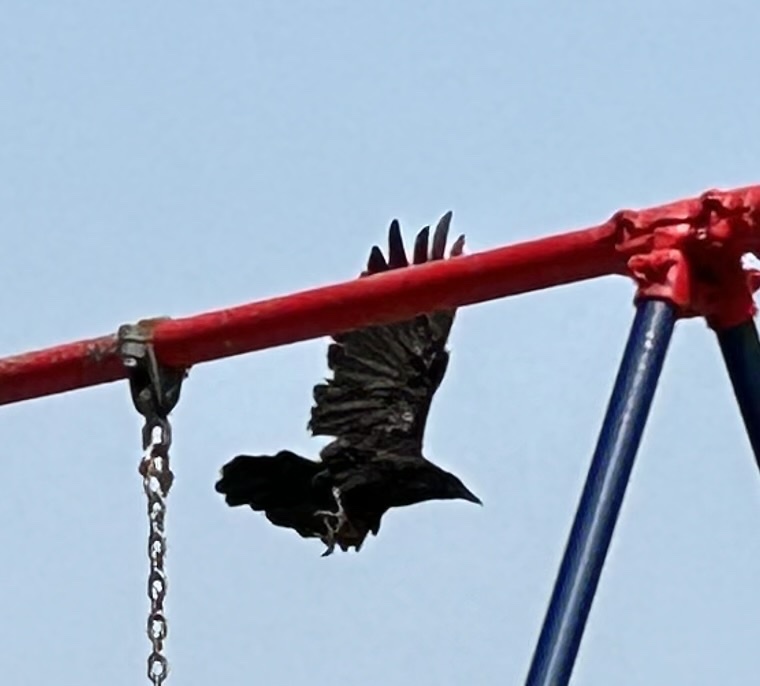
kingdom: Animalia
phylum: Chordata
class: Aves
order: Passeriformes
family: Corvidae
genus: Corvus
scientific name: Corvus brachyrhynchos
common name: American crow
